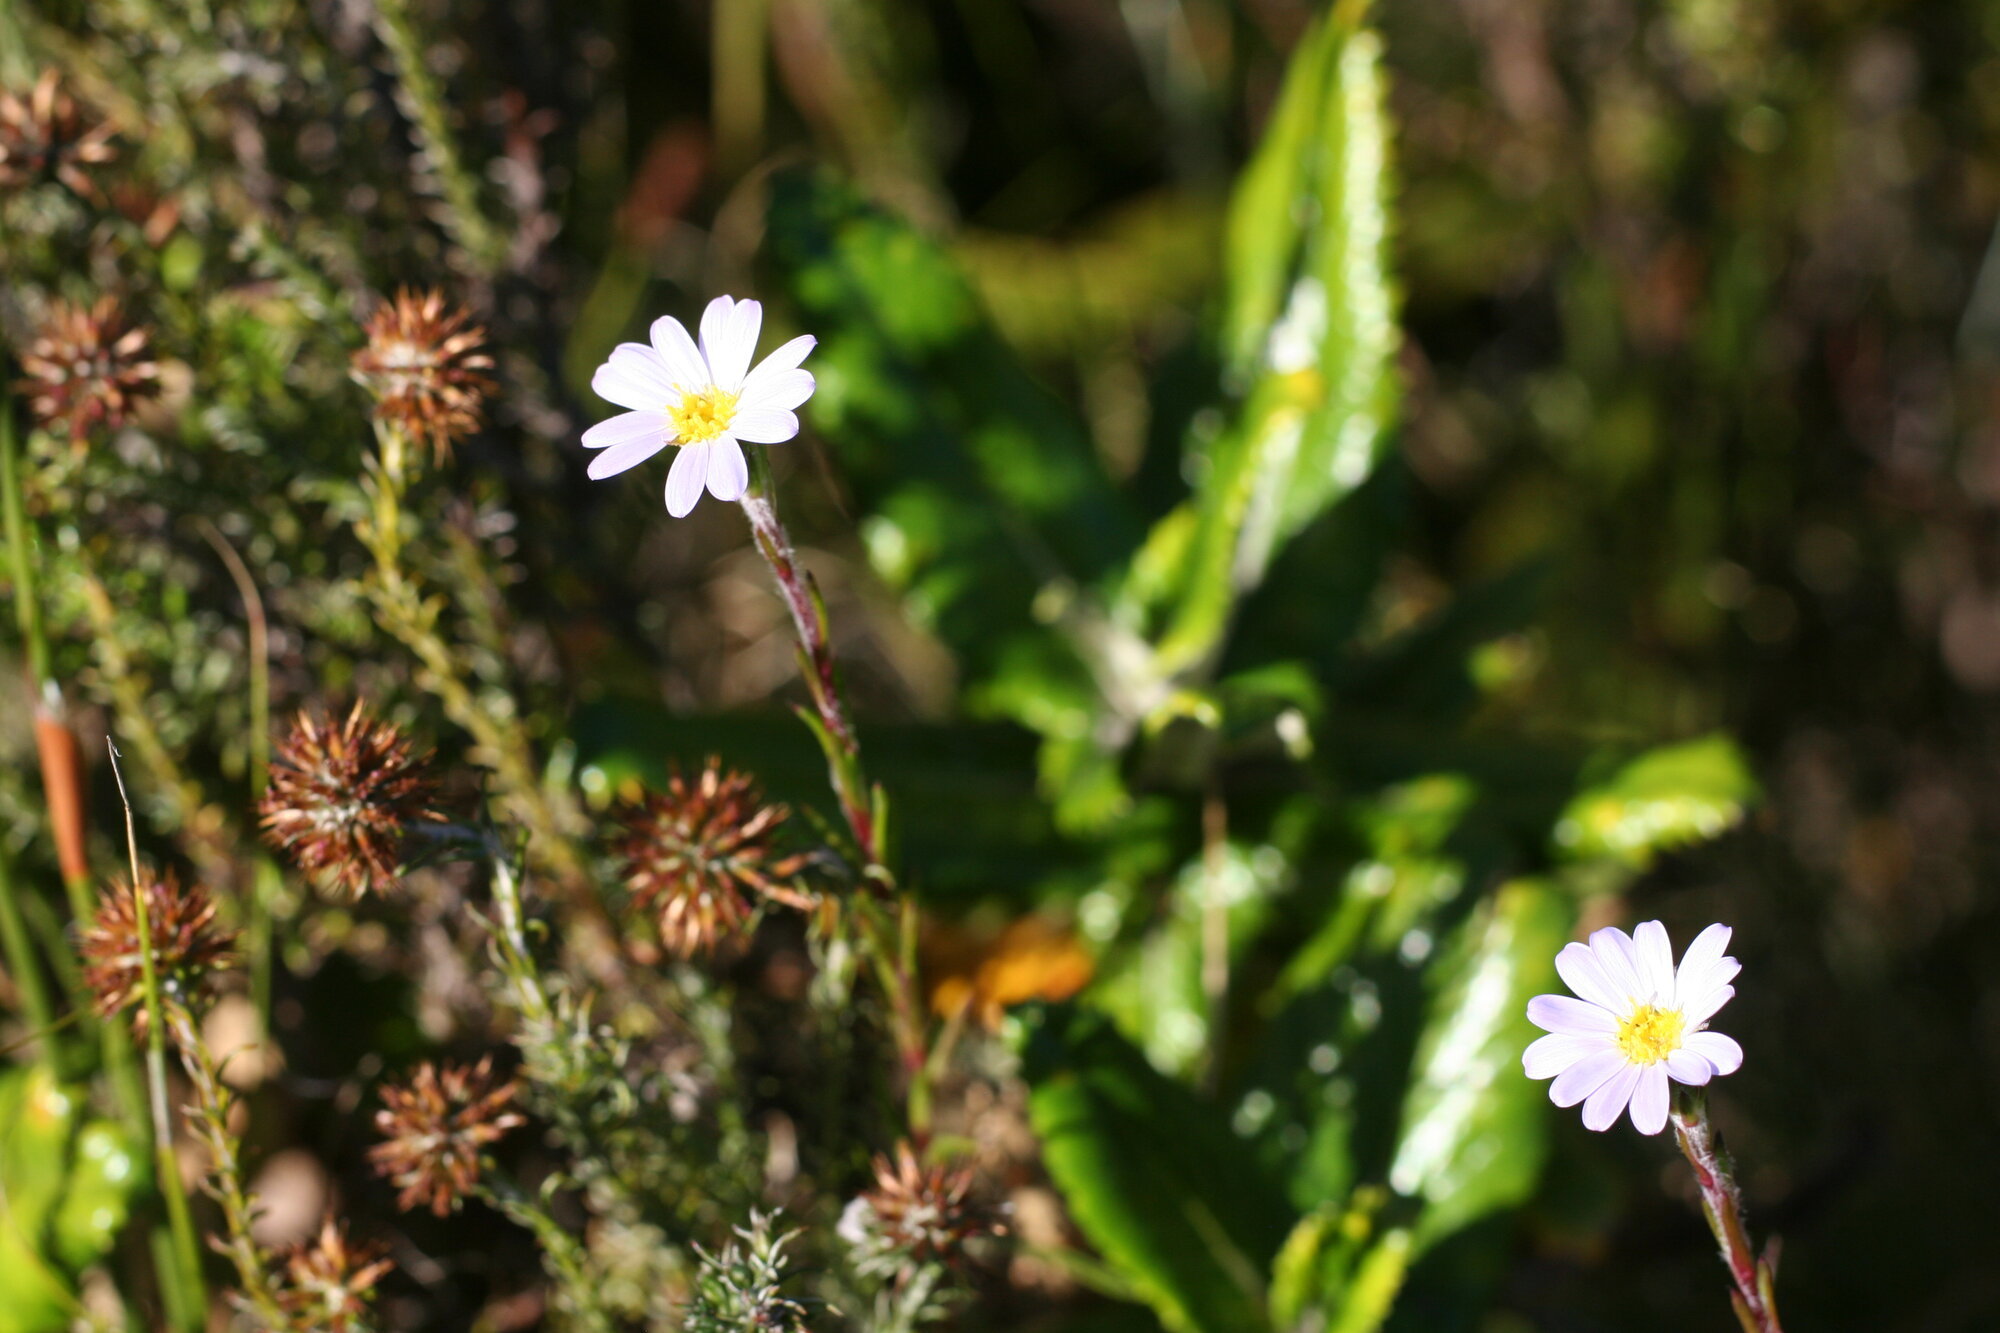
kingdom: Plantae
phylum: Tracheophyta
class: Magnoliopsida
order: Asterales
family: Asteraceae
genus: Zyrphelis
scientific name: Zyrphelis taxifolia
